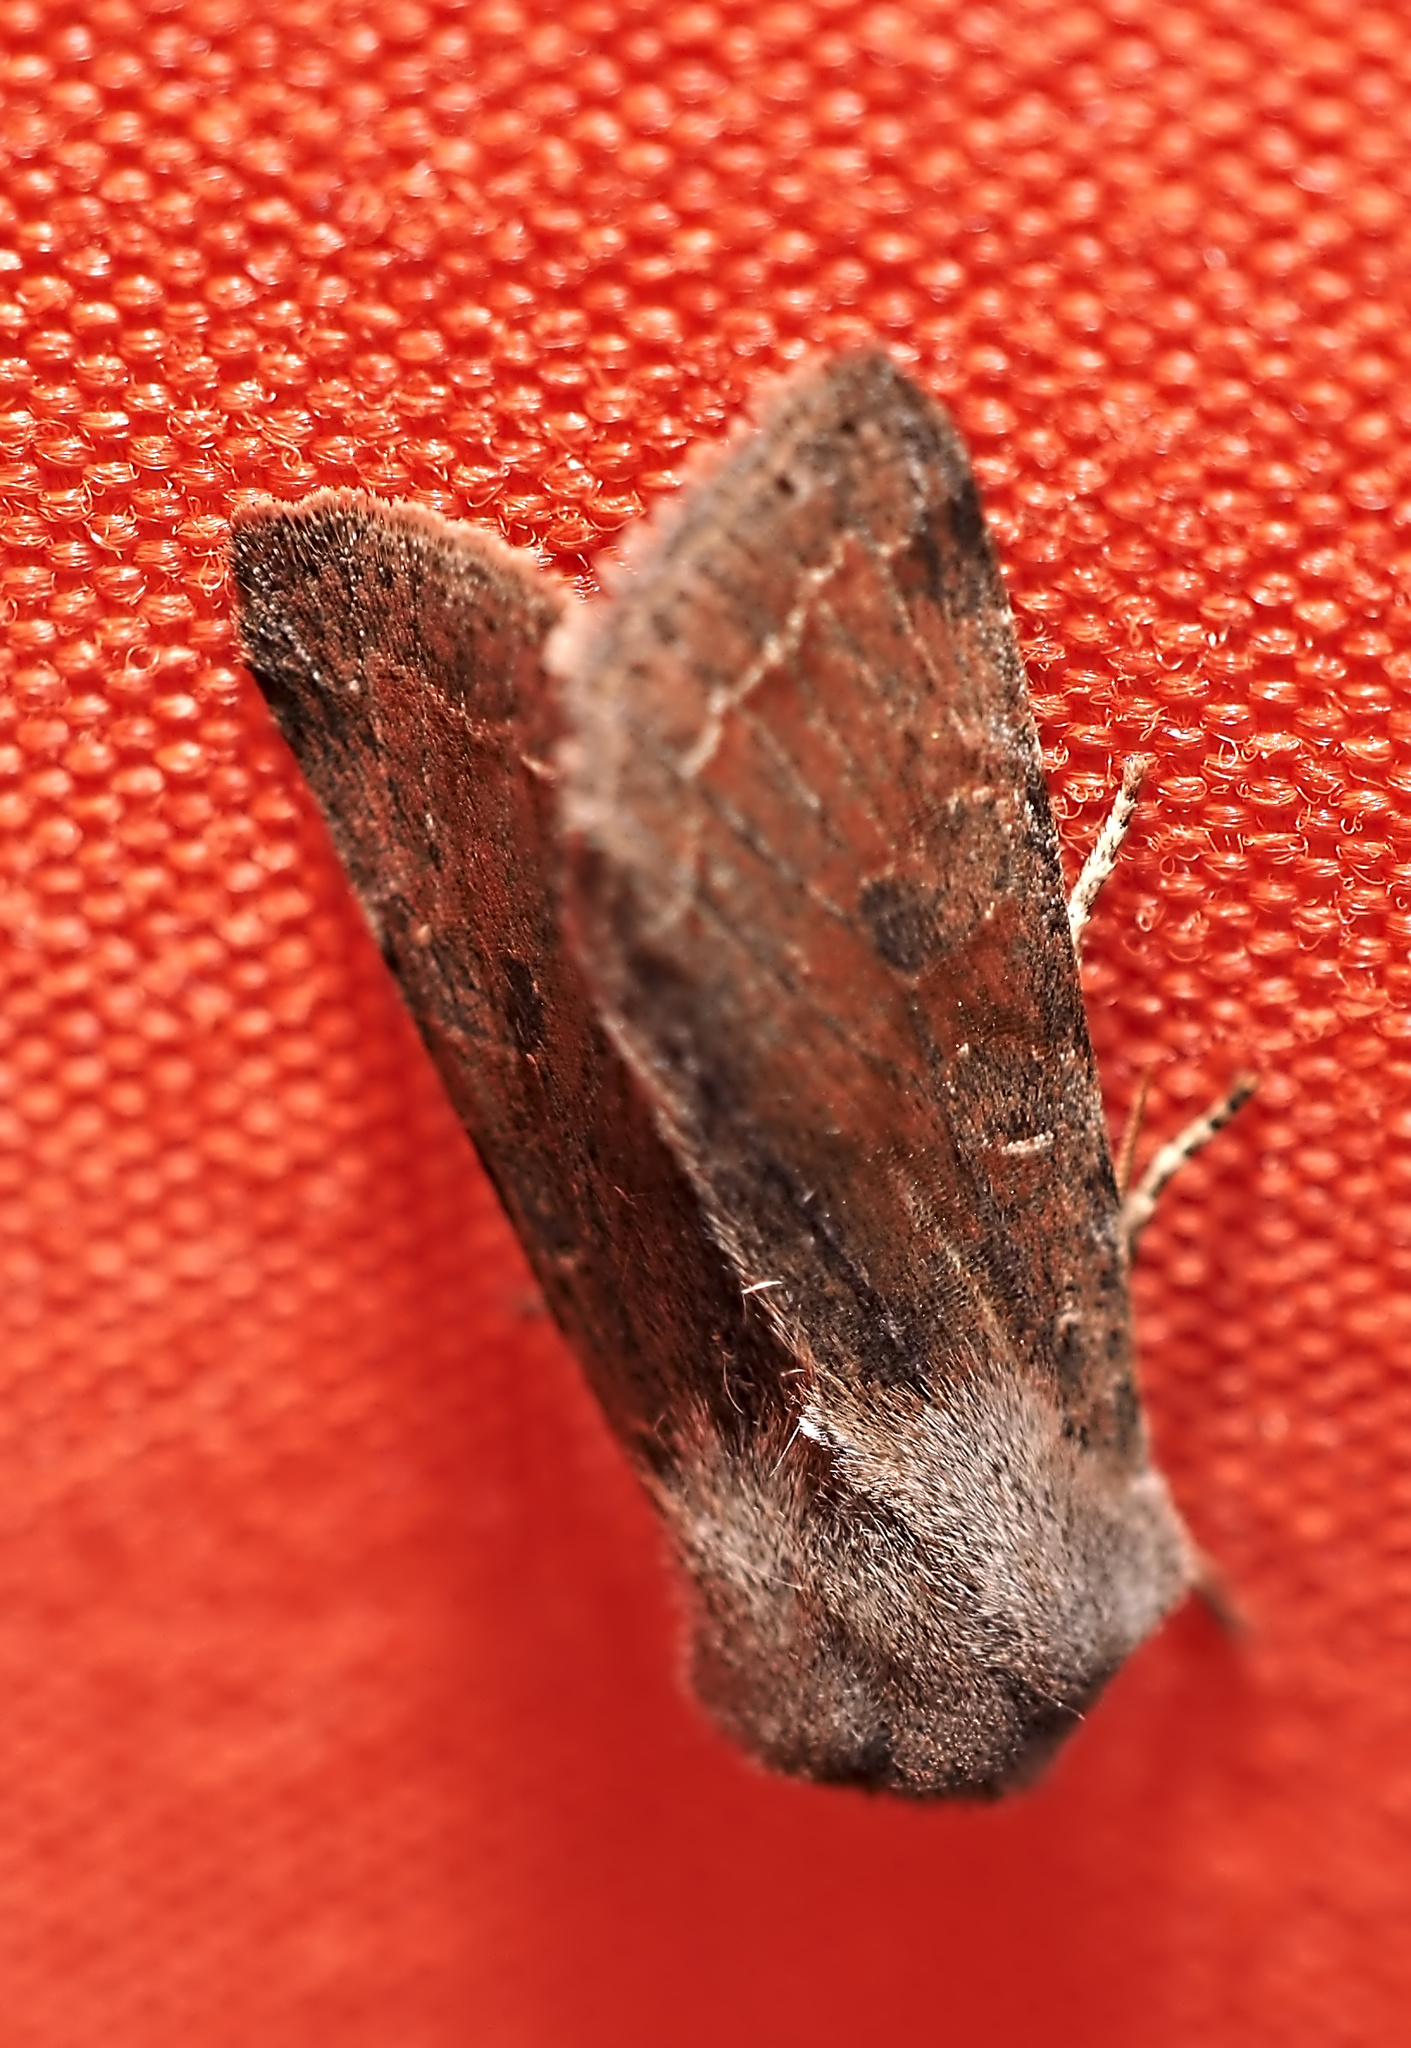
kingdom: Animalia
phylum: Arthropoda
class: Insecta
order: Lepidoptera
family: Noctuidae
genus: Orthosia
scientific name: Orthosia incerta
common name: Clouded drab
